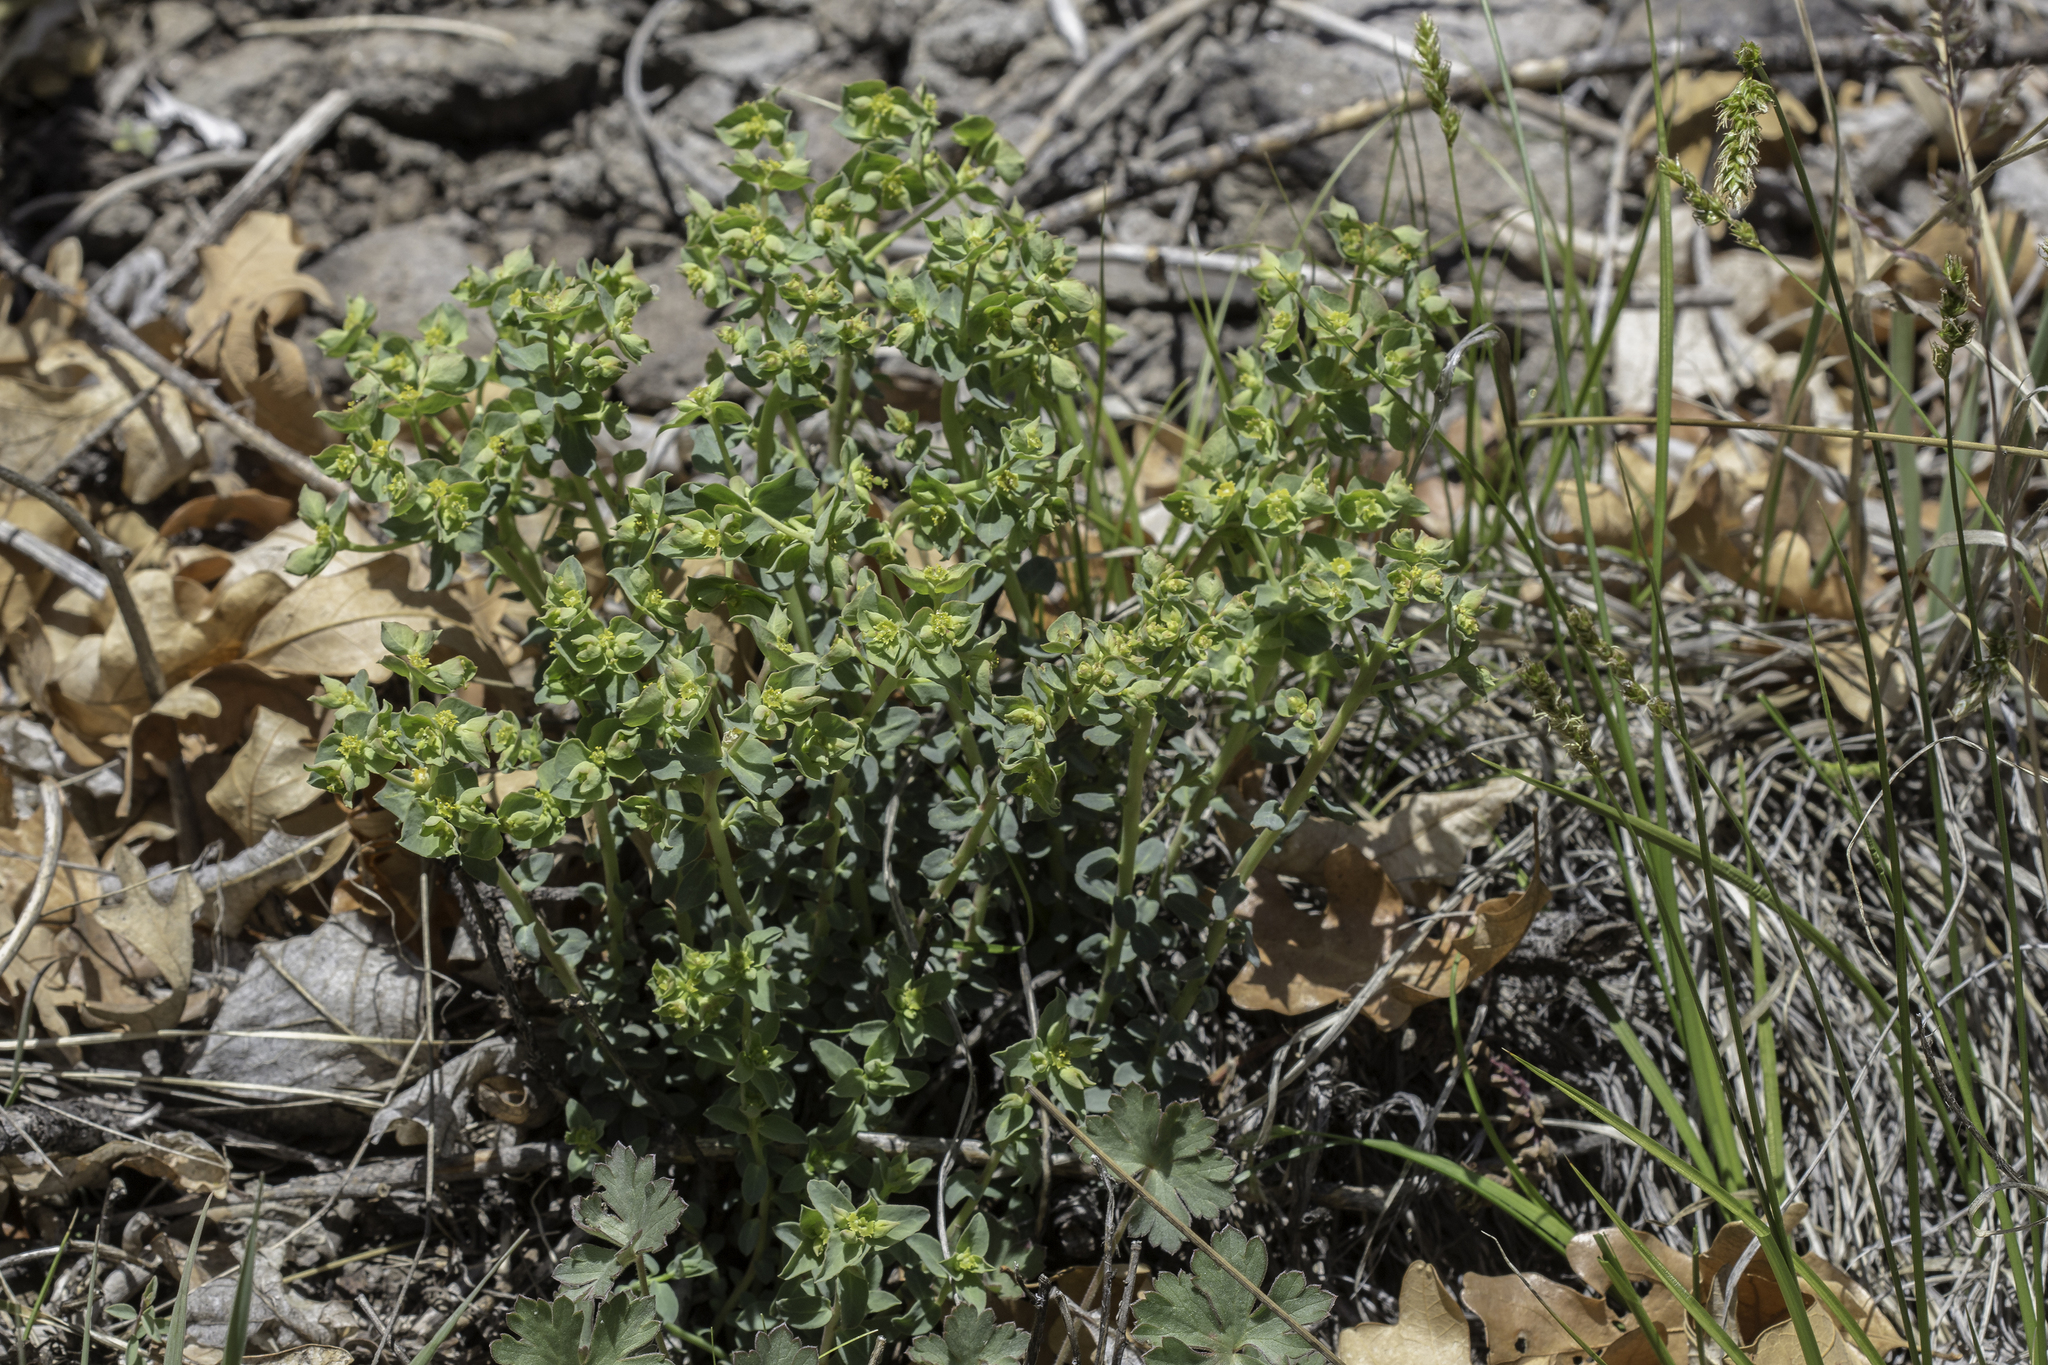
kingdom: Plantae
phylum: Tracheophyta
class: Magnoliopsida
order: Malpighiales
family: Euphorbiaceae
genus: Euphorbia
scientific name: Euphorbia brachycera
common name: Shorthorn spurge
